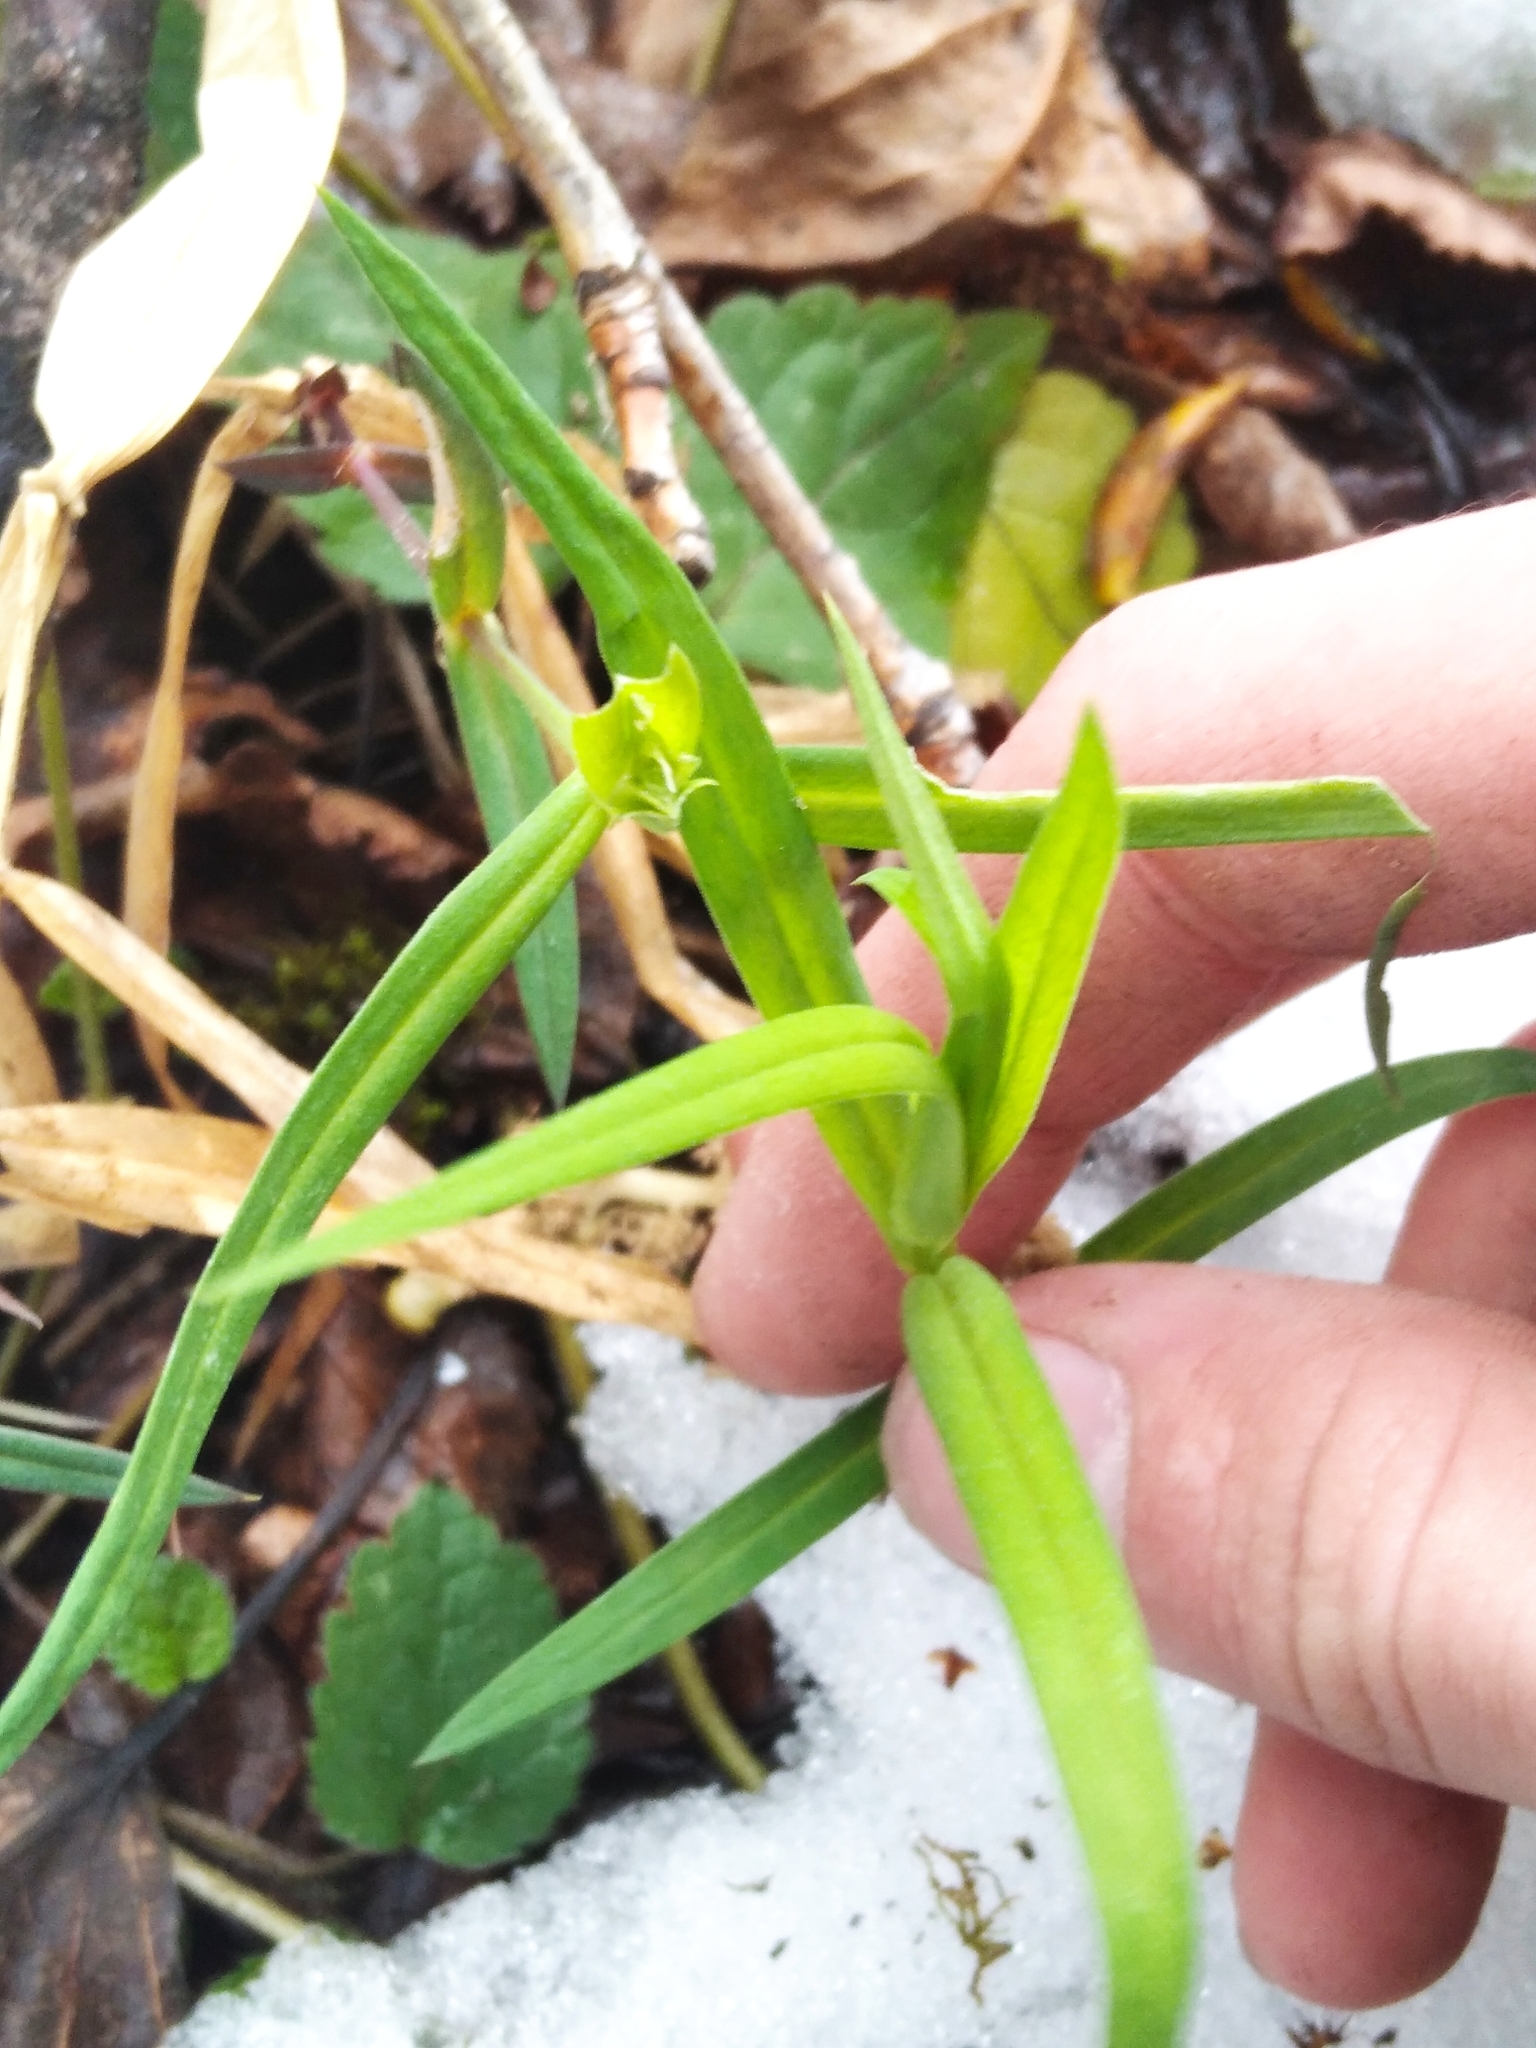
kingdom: Plantae
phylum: Tracheophyta
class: Magnoliopsida
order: Caryophyllales
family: Caryophyllaceae
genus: Rabelera
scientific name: Rabelera holostea
